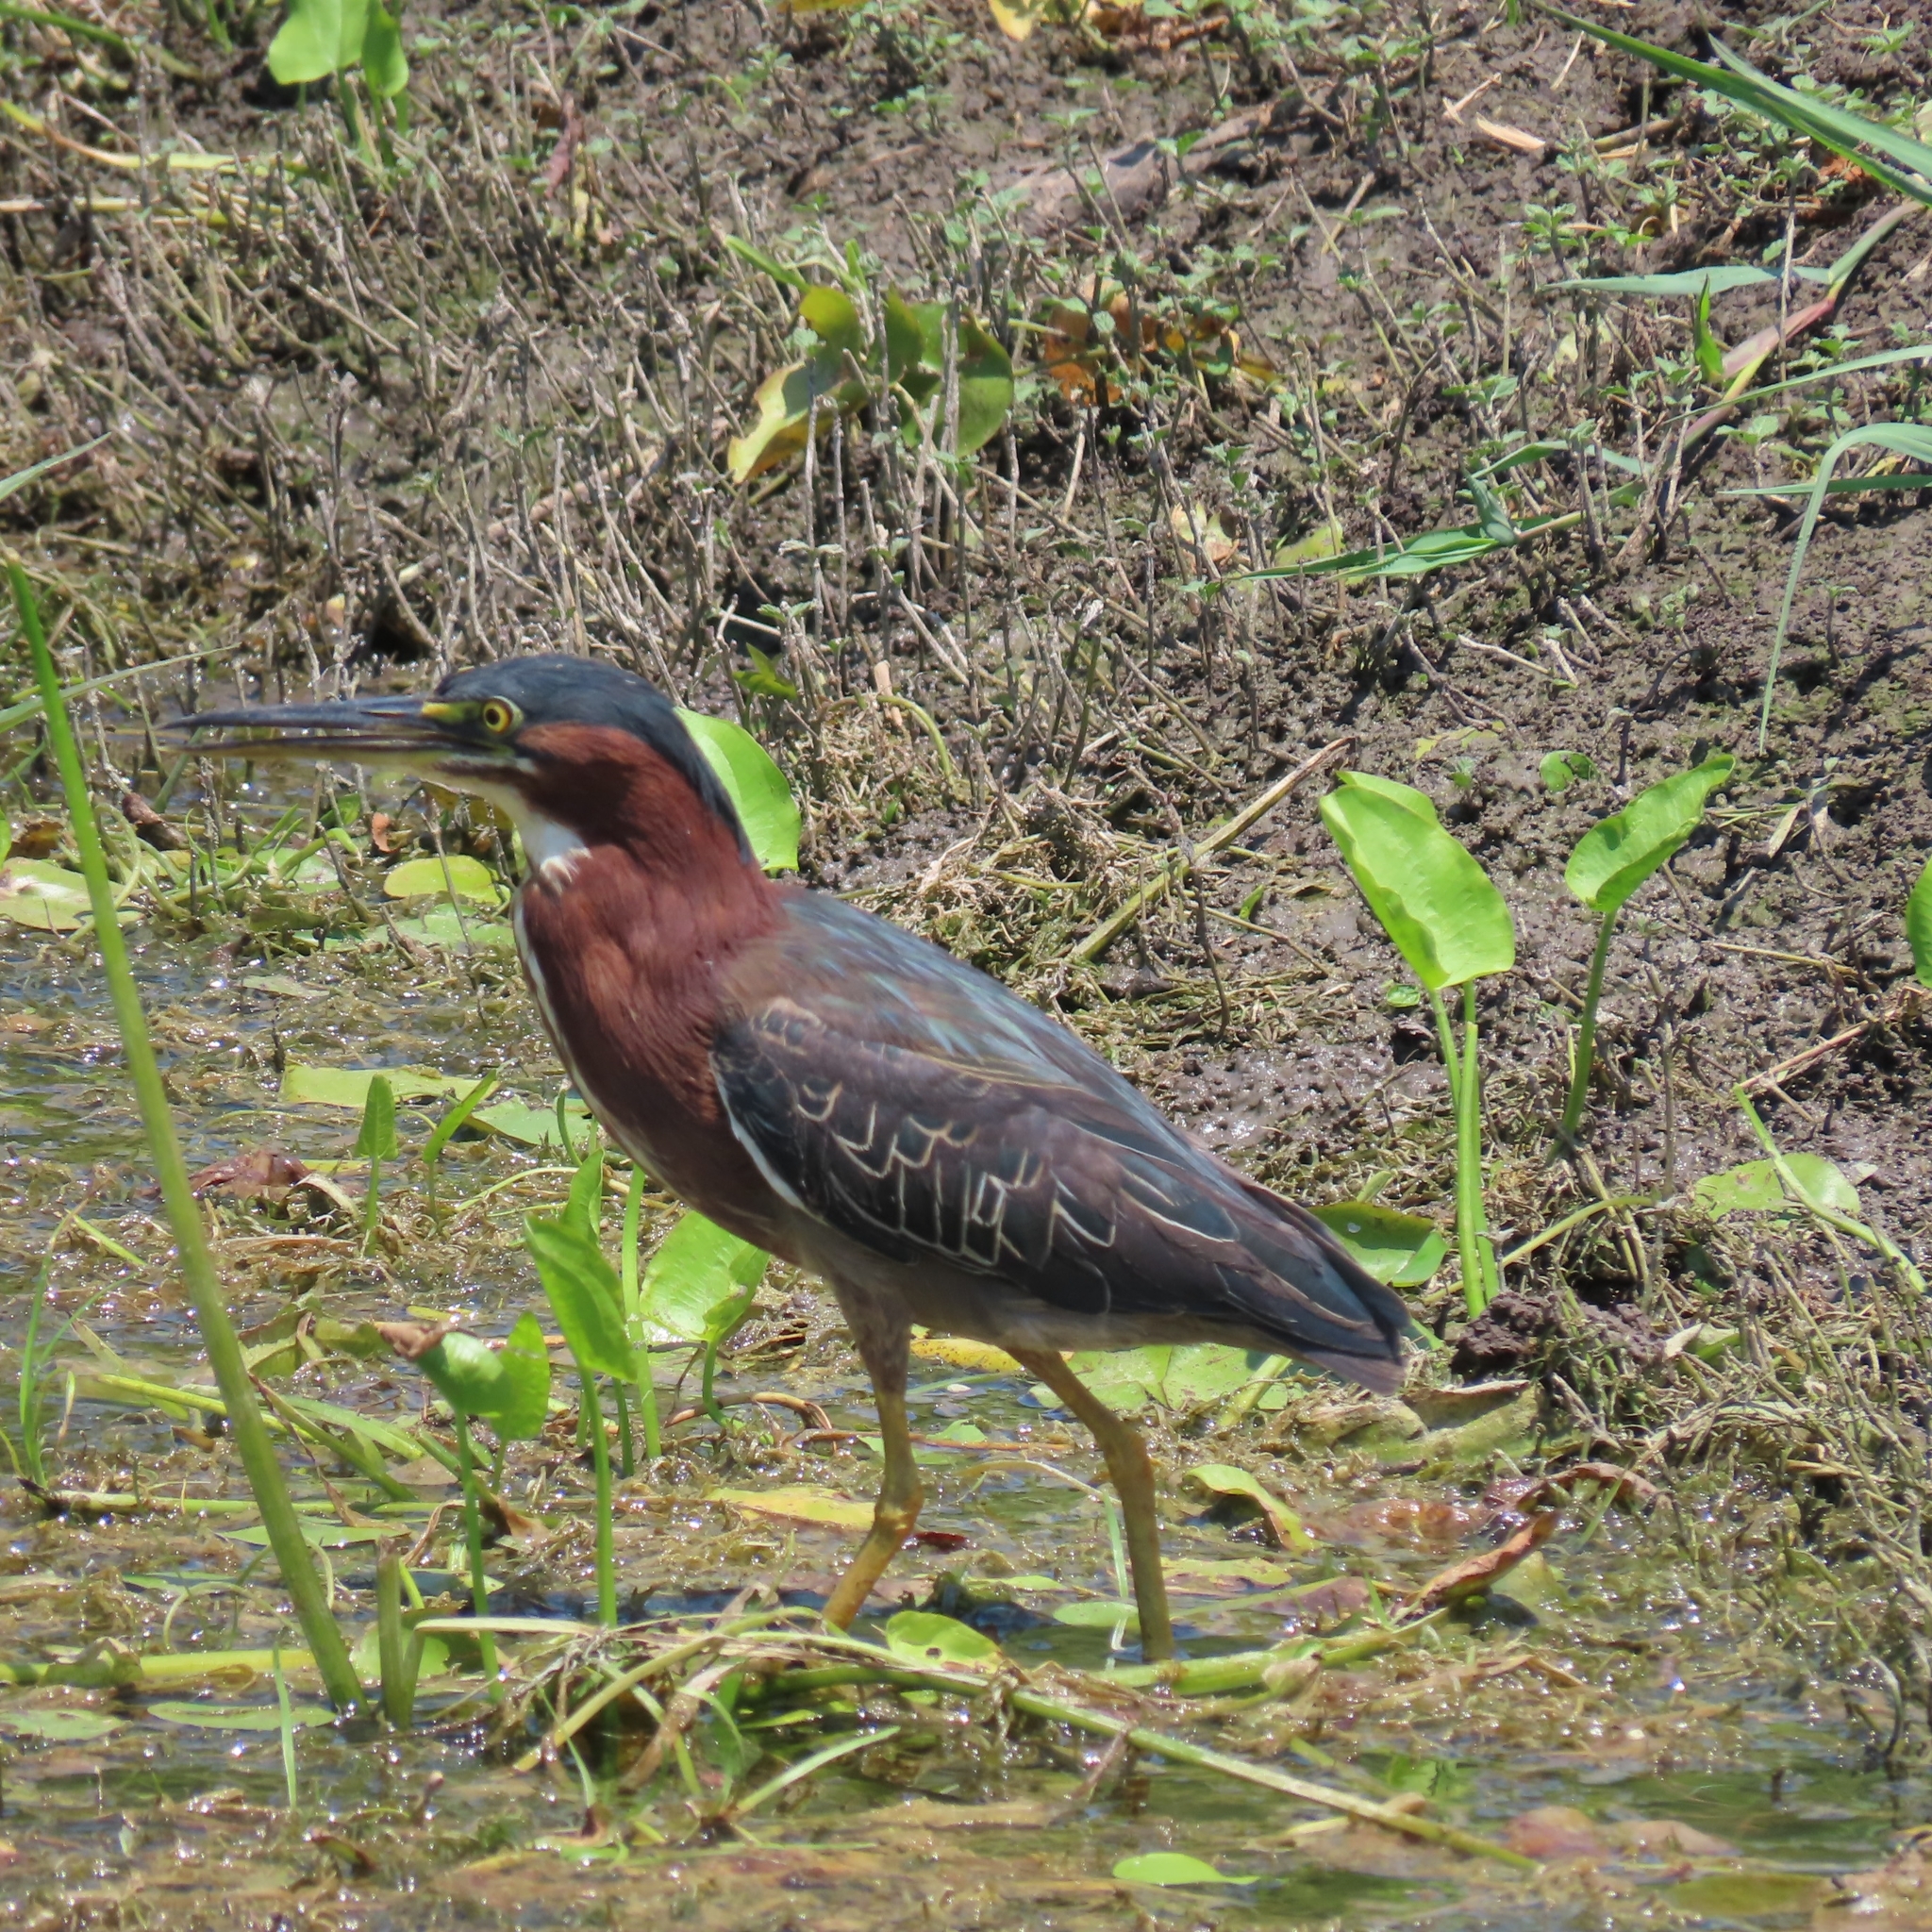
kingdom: Animalia
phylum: Chordata
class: Aves
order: Pelecaniformes
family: Ardeidae
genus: Butorides
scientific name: Butorides virescens
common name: Green heron
